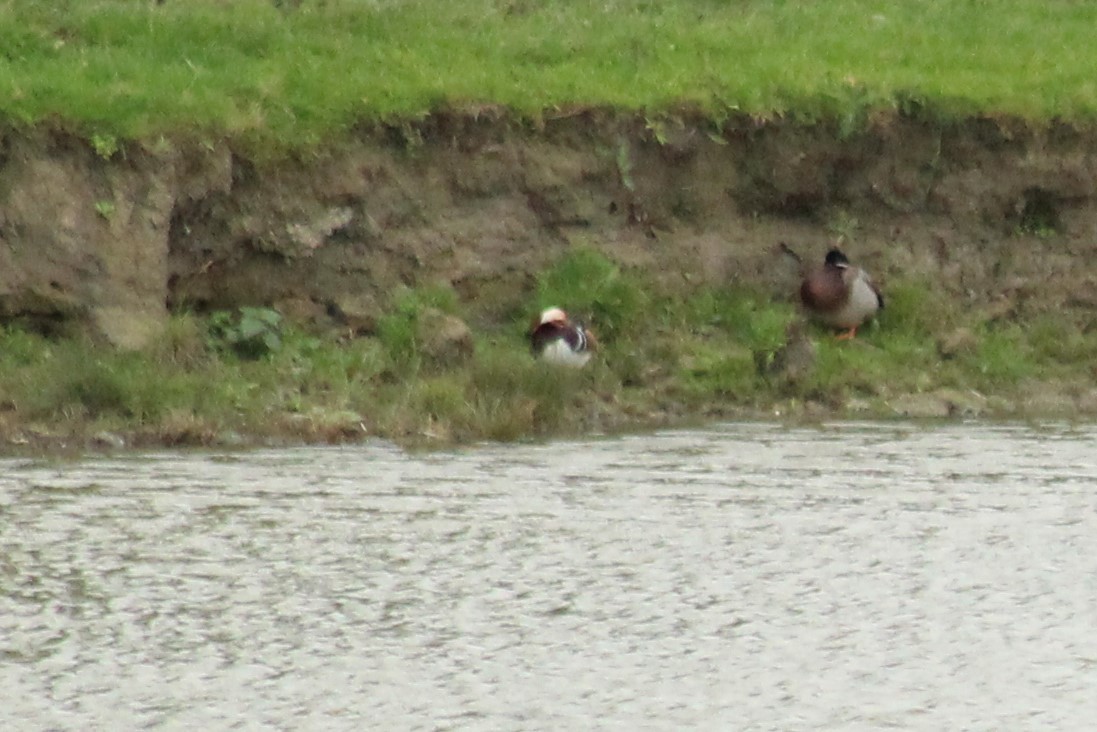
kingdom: Animalia
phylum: Chordata
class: Aves
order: Anseriformes
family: Anatidae
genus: Aix
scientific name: Aix galericulata
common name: Mandarin duck
